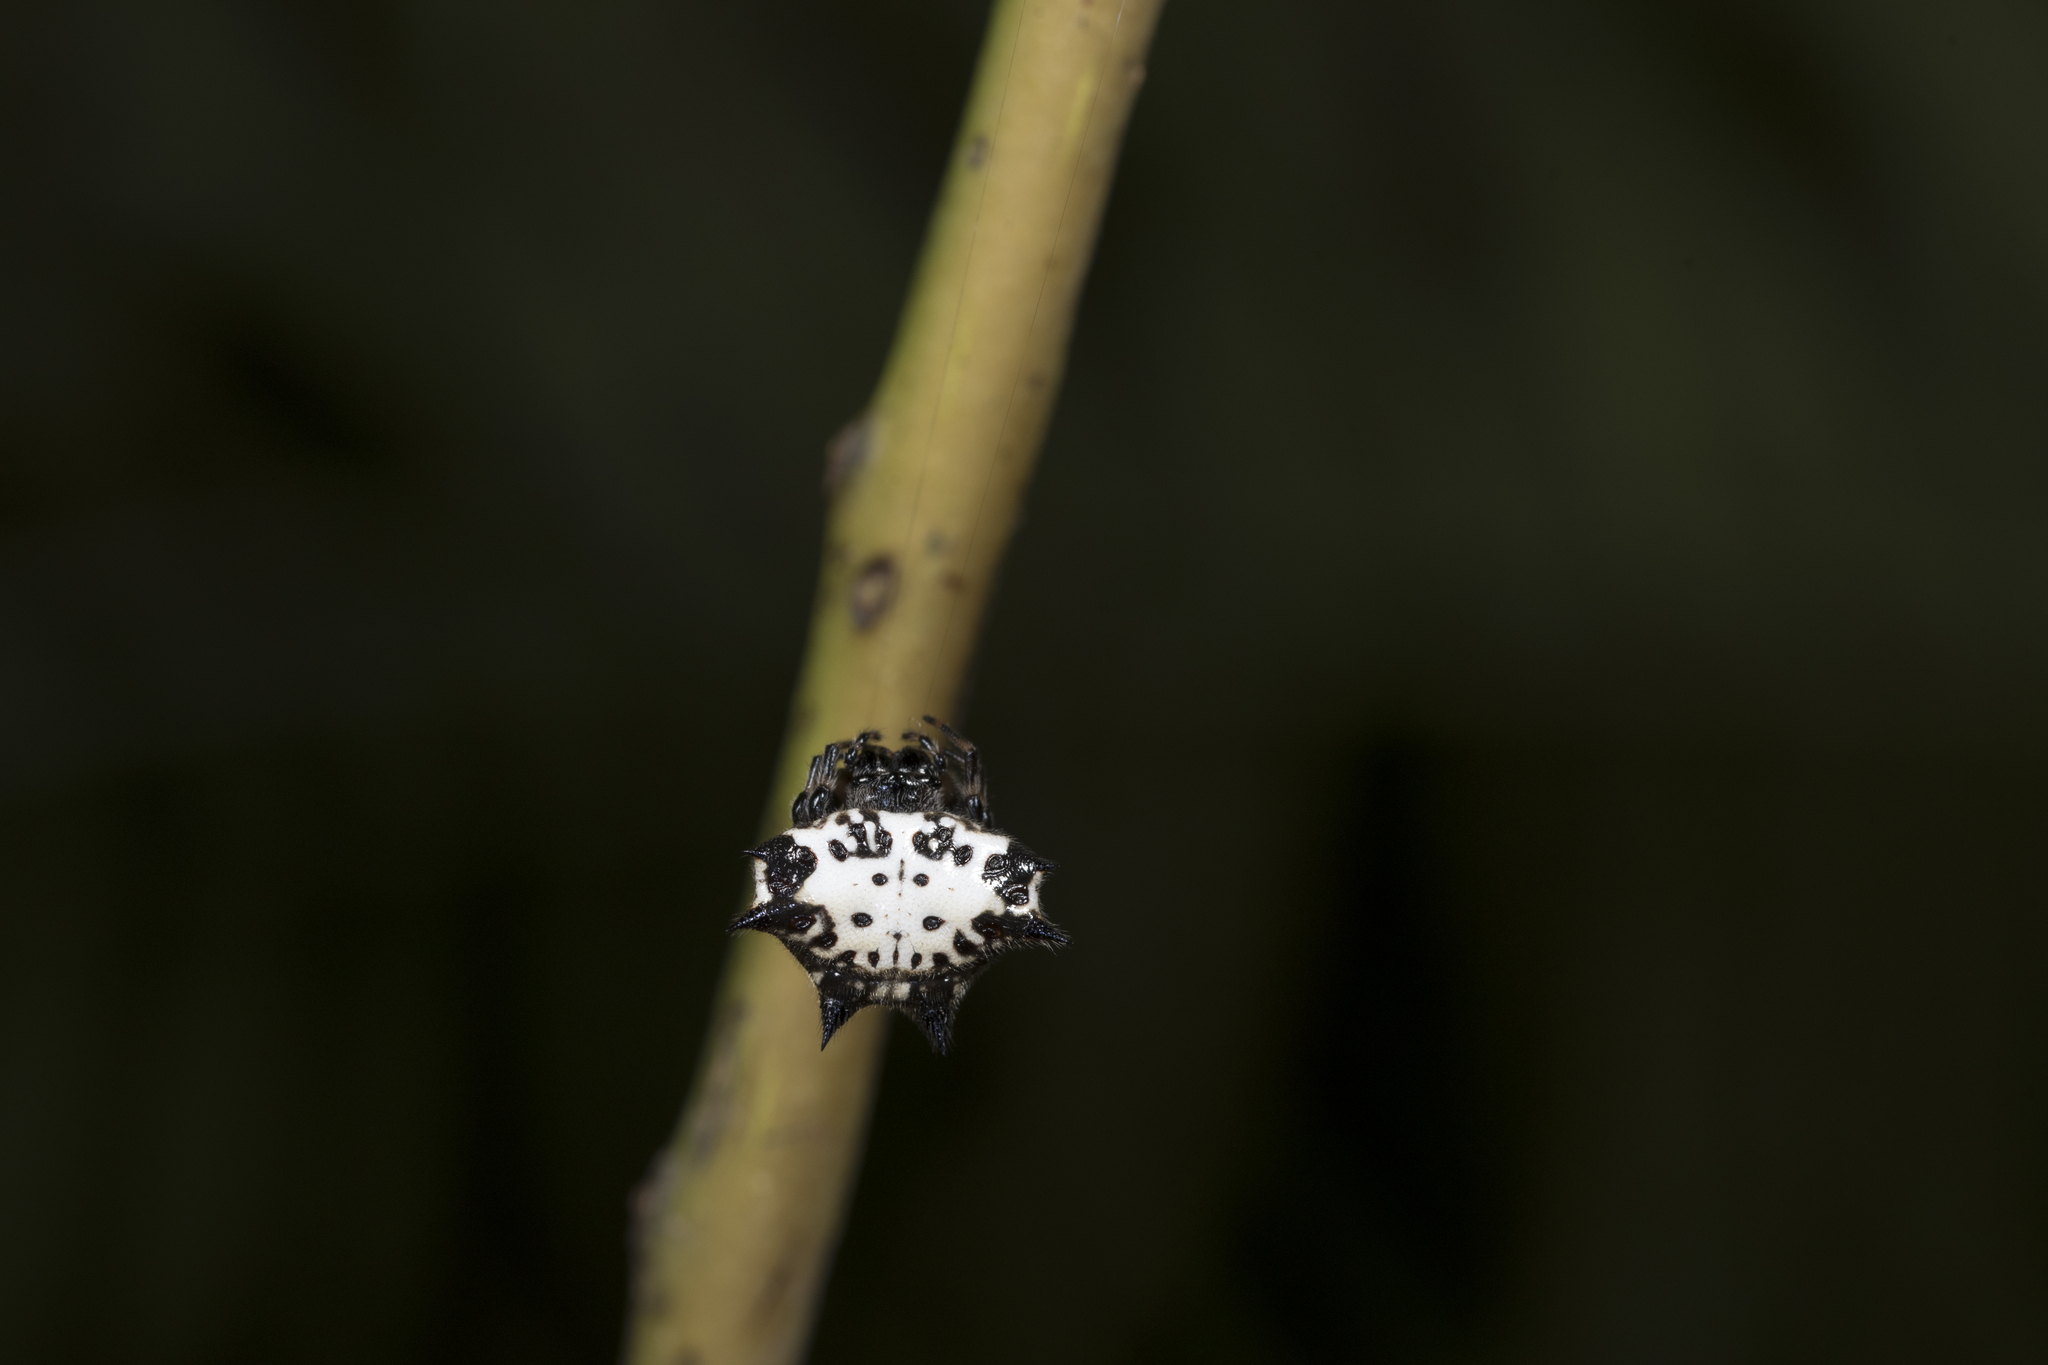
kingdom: Animalia
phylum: Arthropoda
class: Arachnida
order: Araneae
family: Araneidae
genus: Gasteracantha
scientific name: Gasteracantha kuhli
